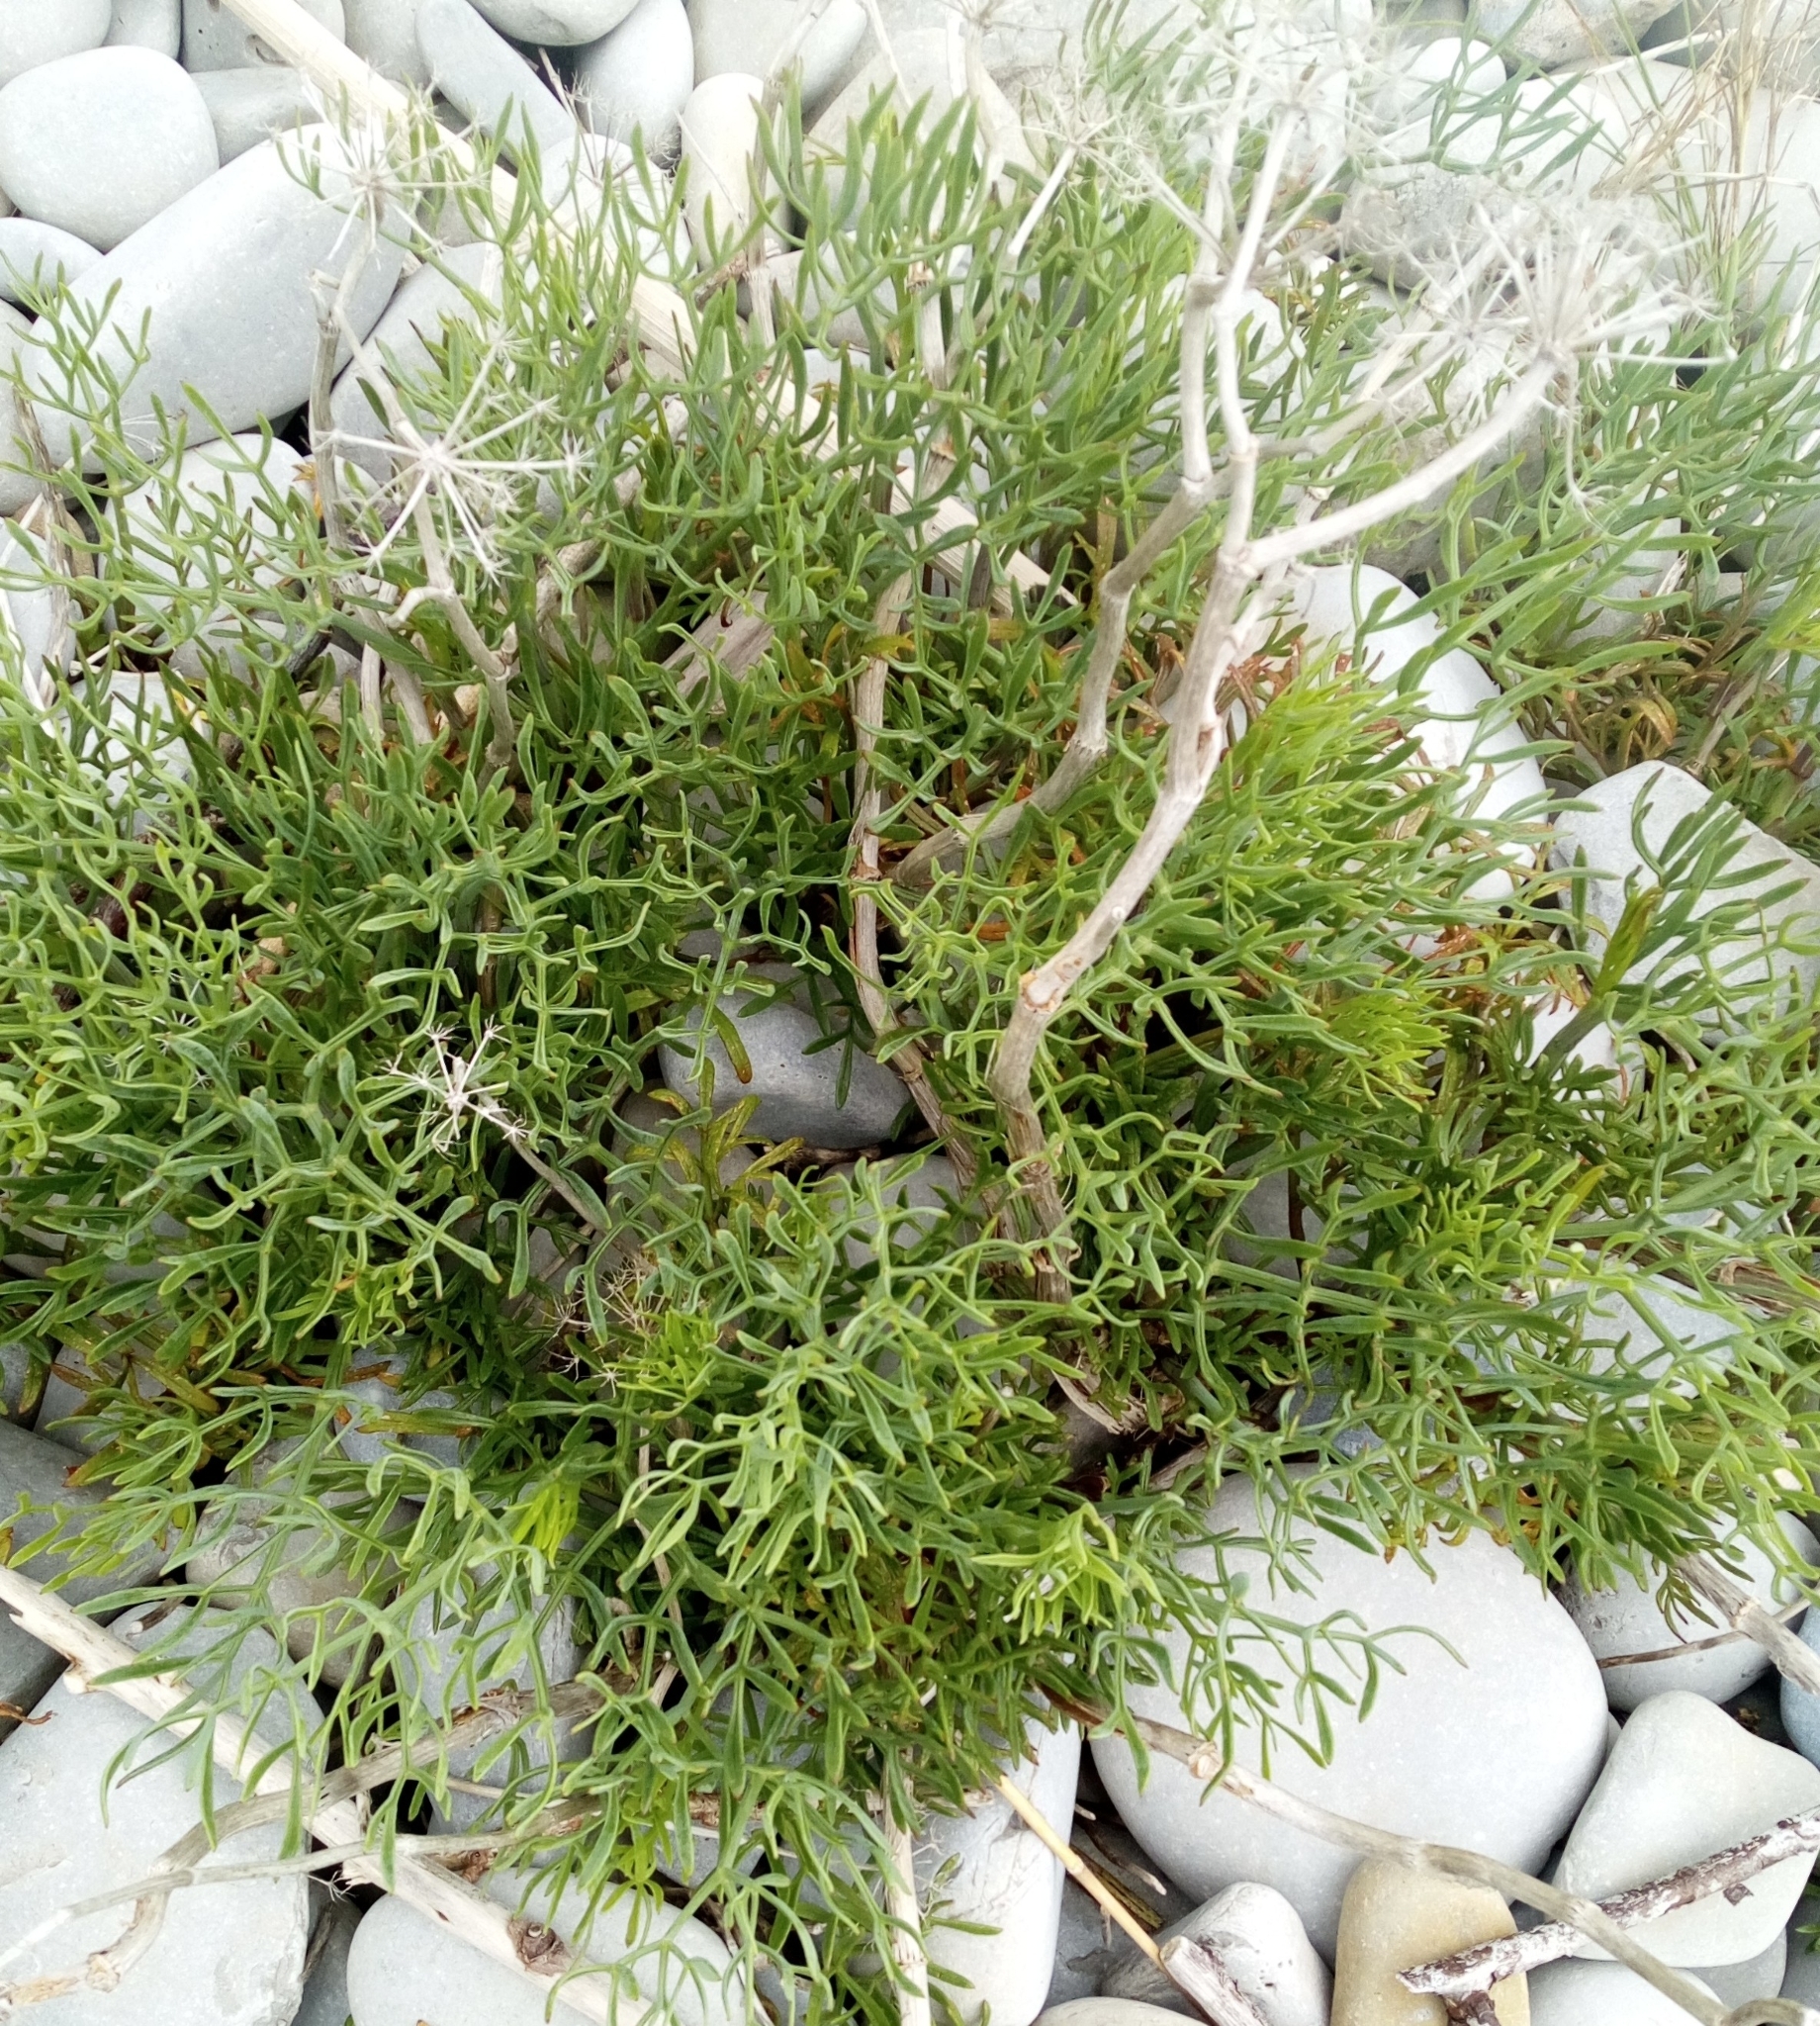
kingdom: Plantae
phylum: Tracheophyta
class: Magnoliopsida
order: Apiales
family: Apiaceae
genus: Crithmum
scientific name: Crithmum maritimum
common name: Rock samphire
